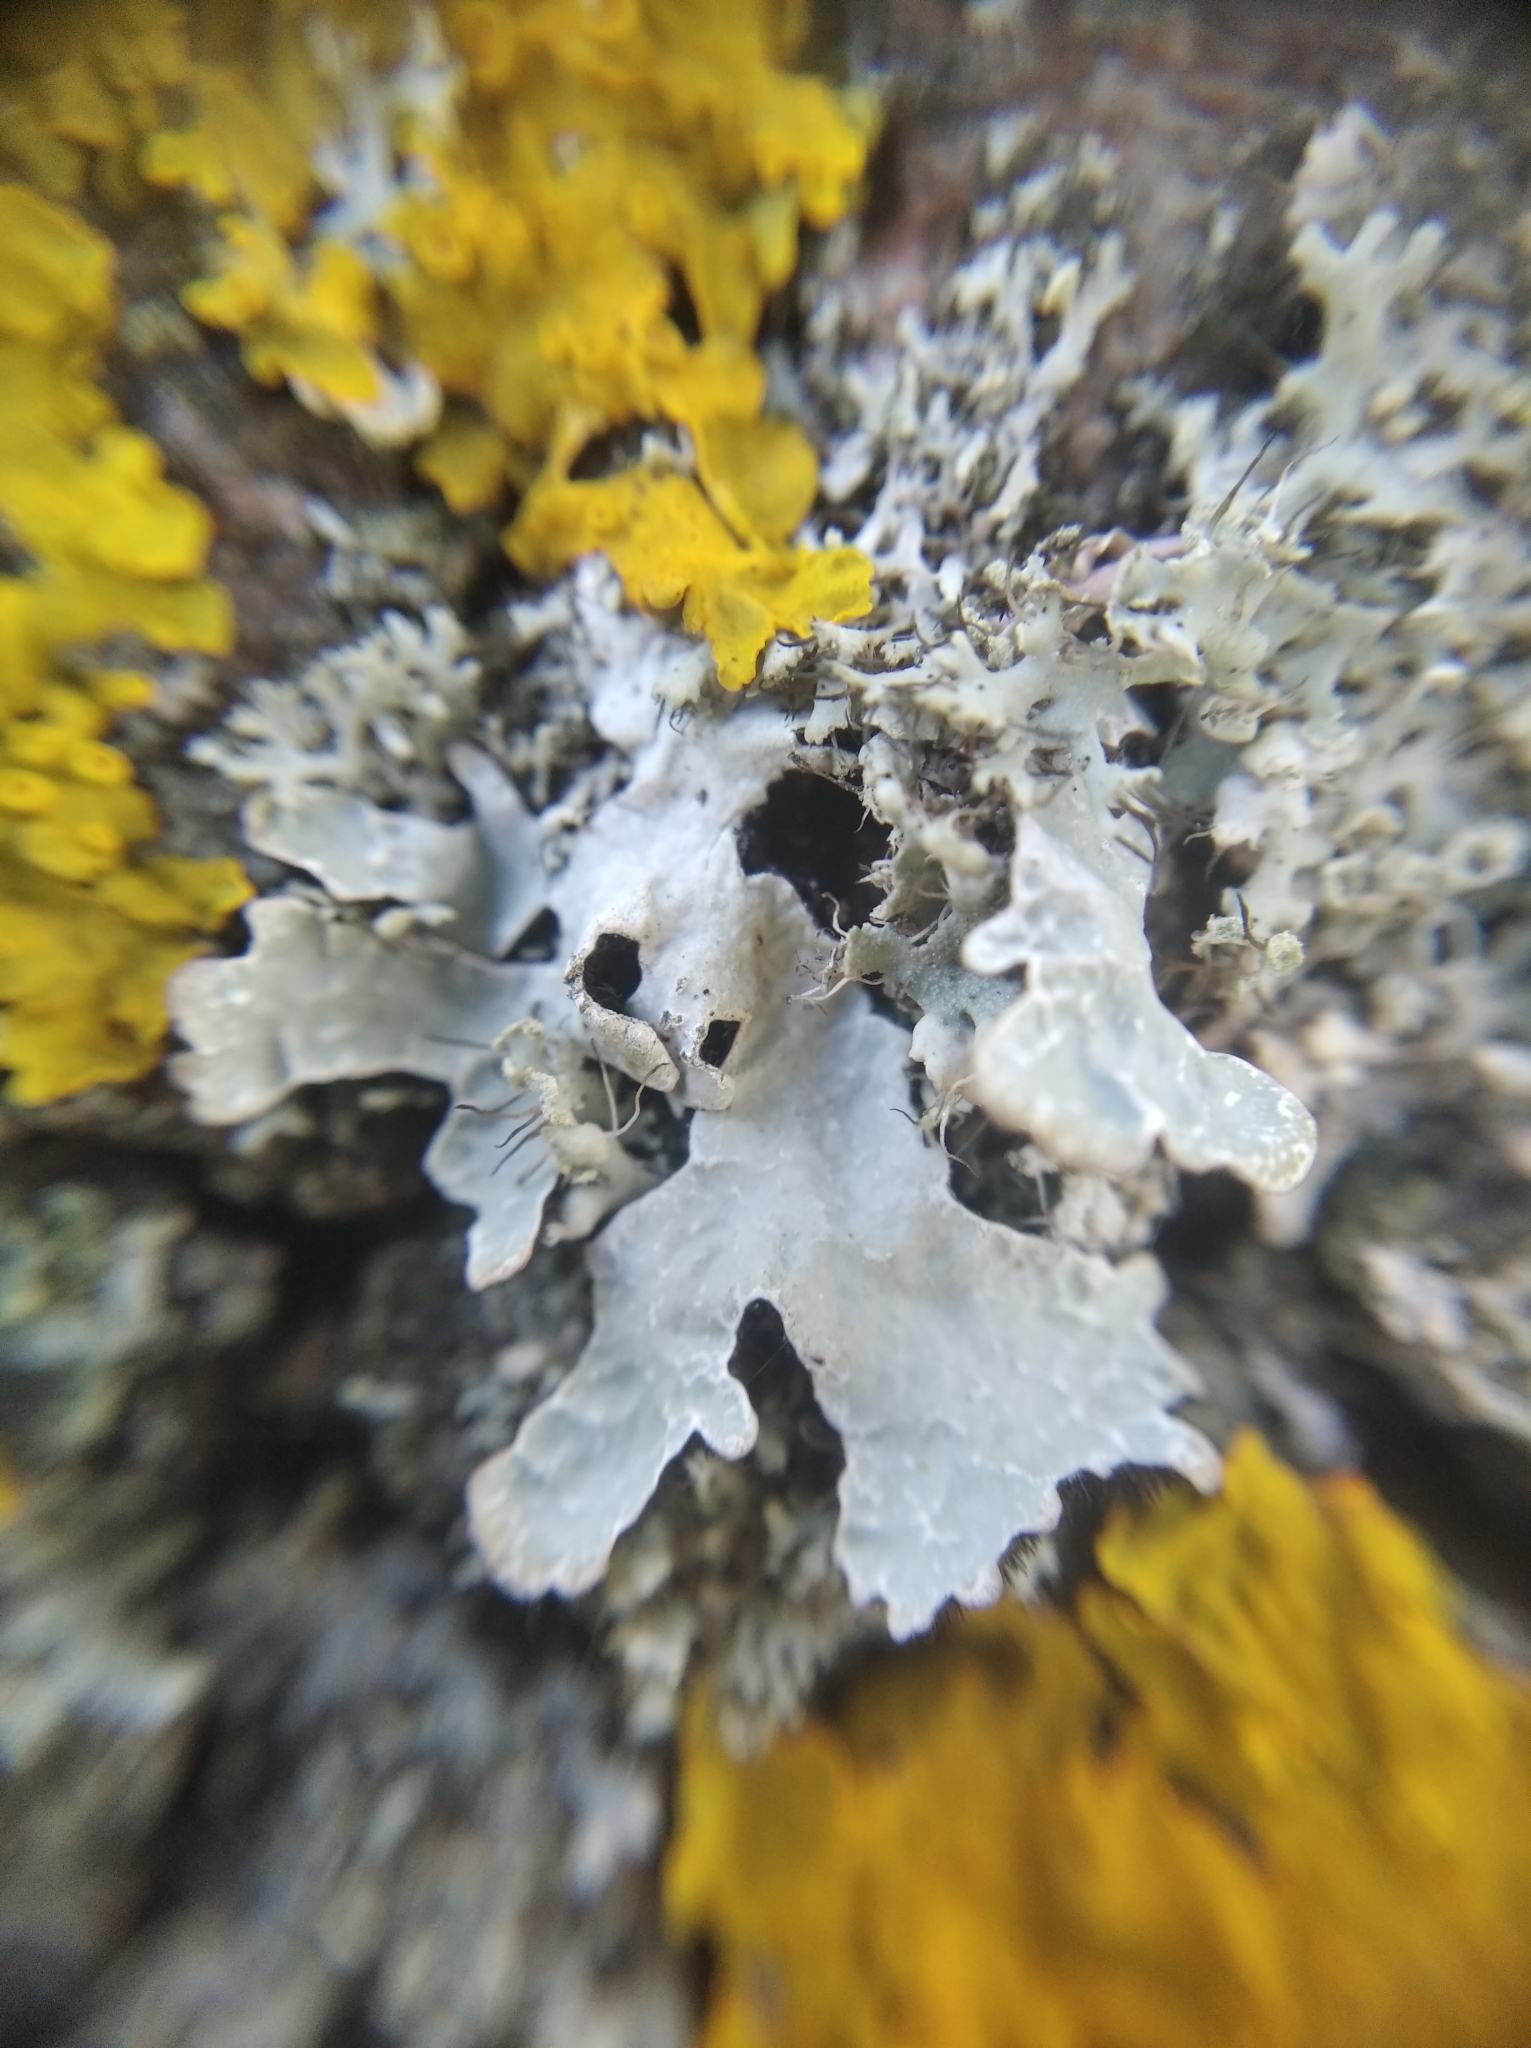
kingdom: Fungi
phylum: Ascomycota
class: Lecanoromycetes
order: Lecanorales
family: Parmeliaceae
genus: Parmelia
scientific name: Parmelia sulcata
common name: Netted shield lichen
